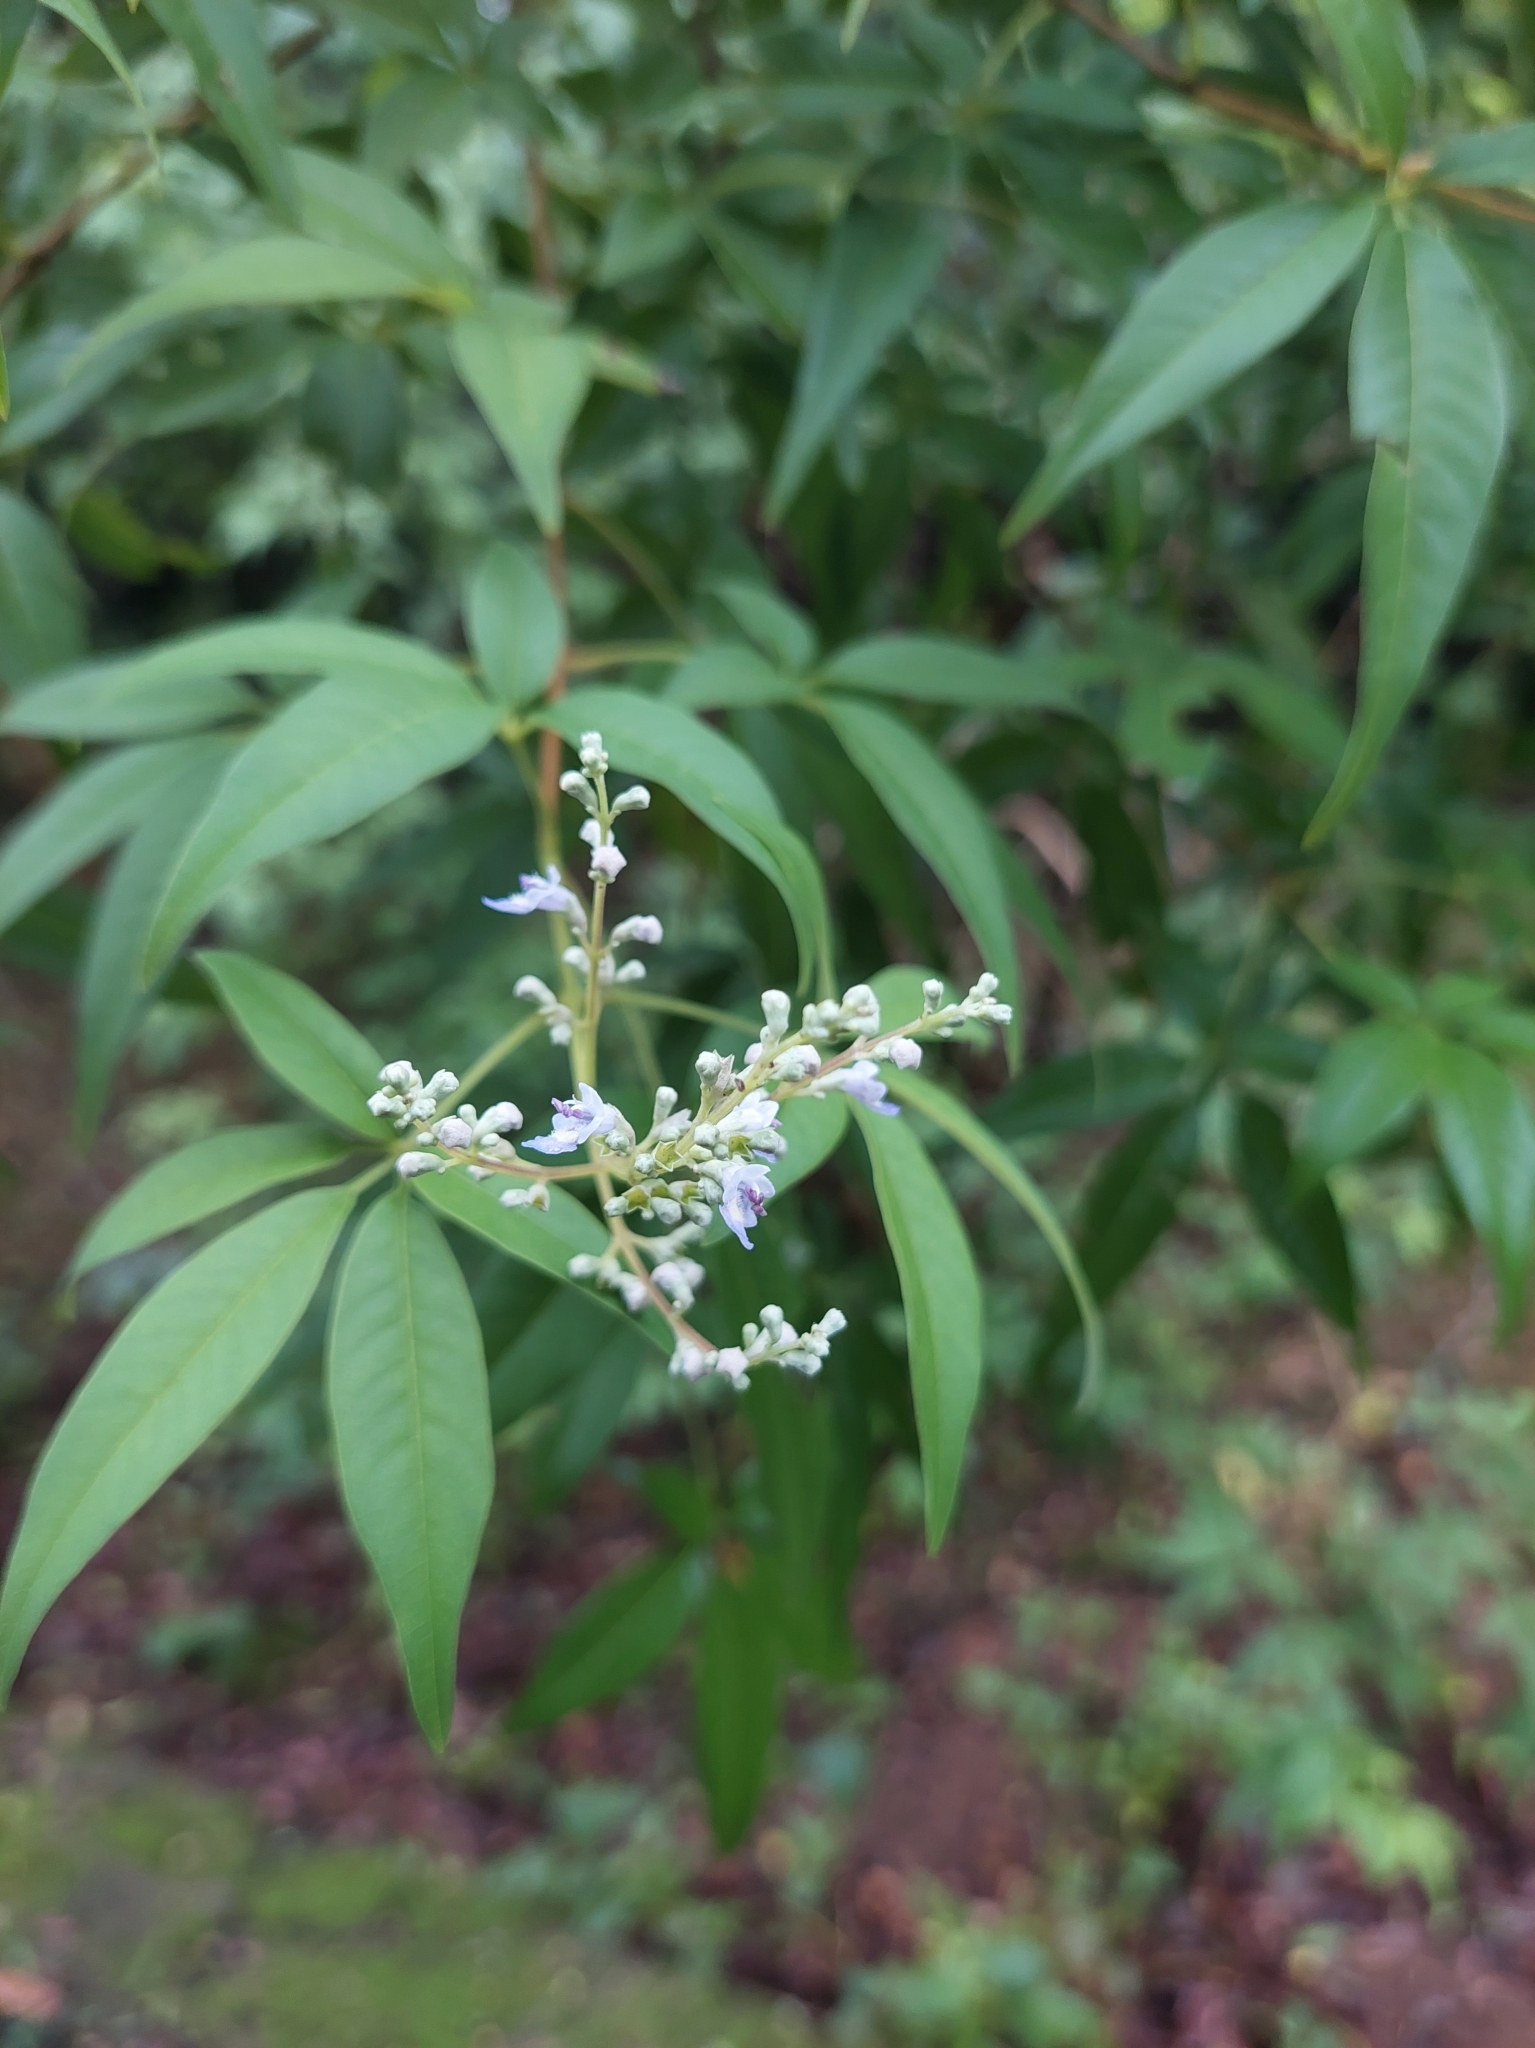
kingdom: Plantae
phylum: Tracheophyta
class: Magnoliopsida
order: Lamiales
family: Lamiaceae
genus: Vitex
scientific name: Vitex negundo
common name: Chinese chastetree
